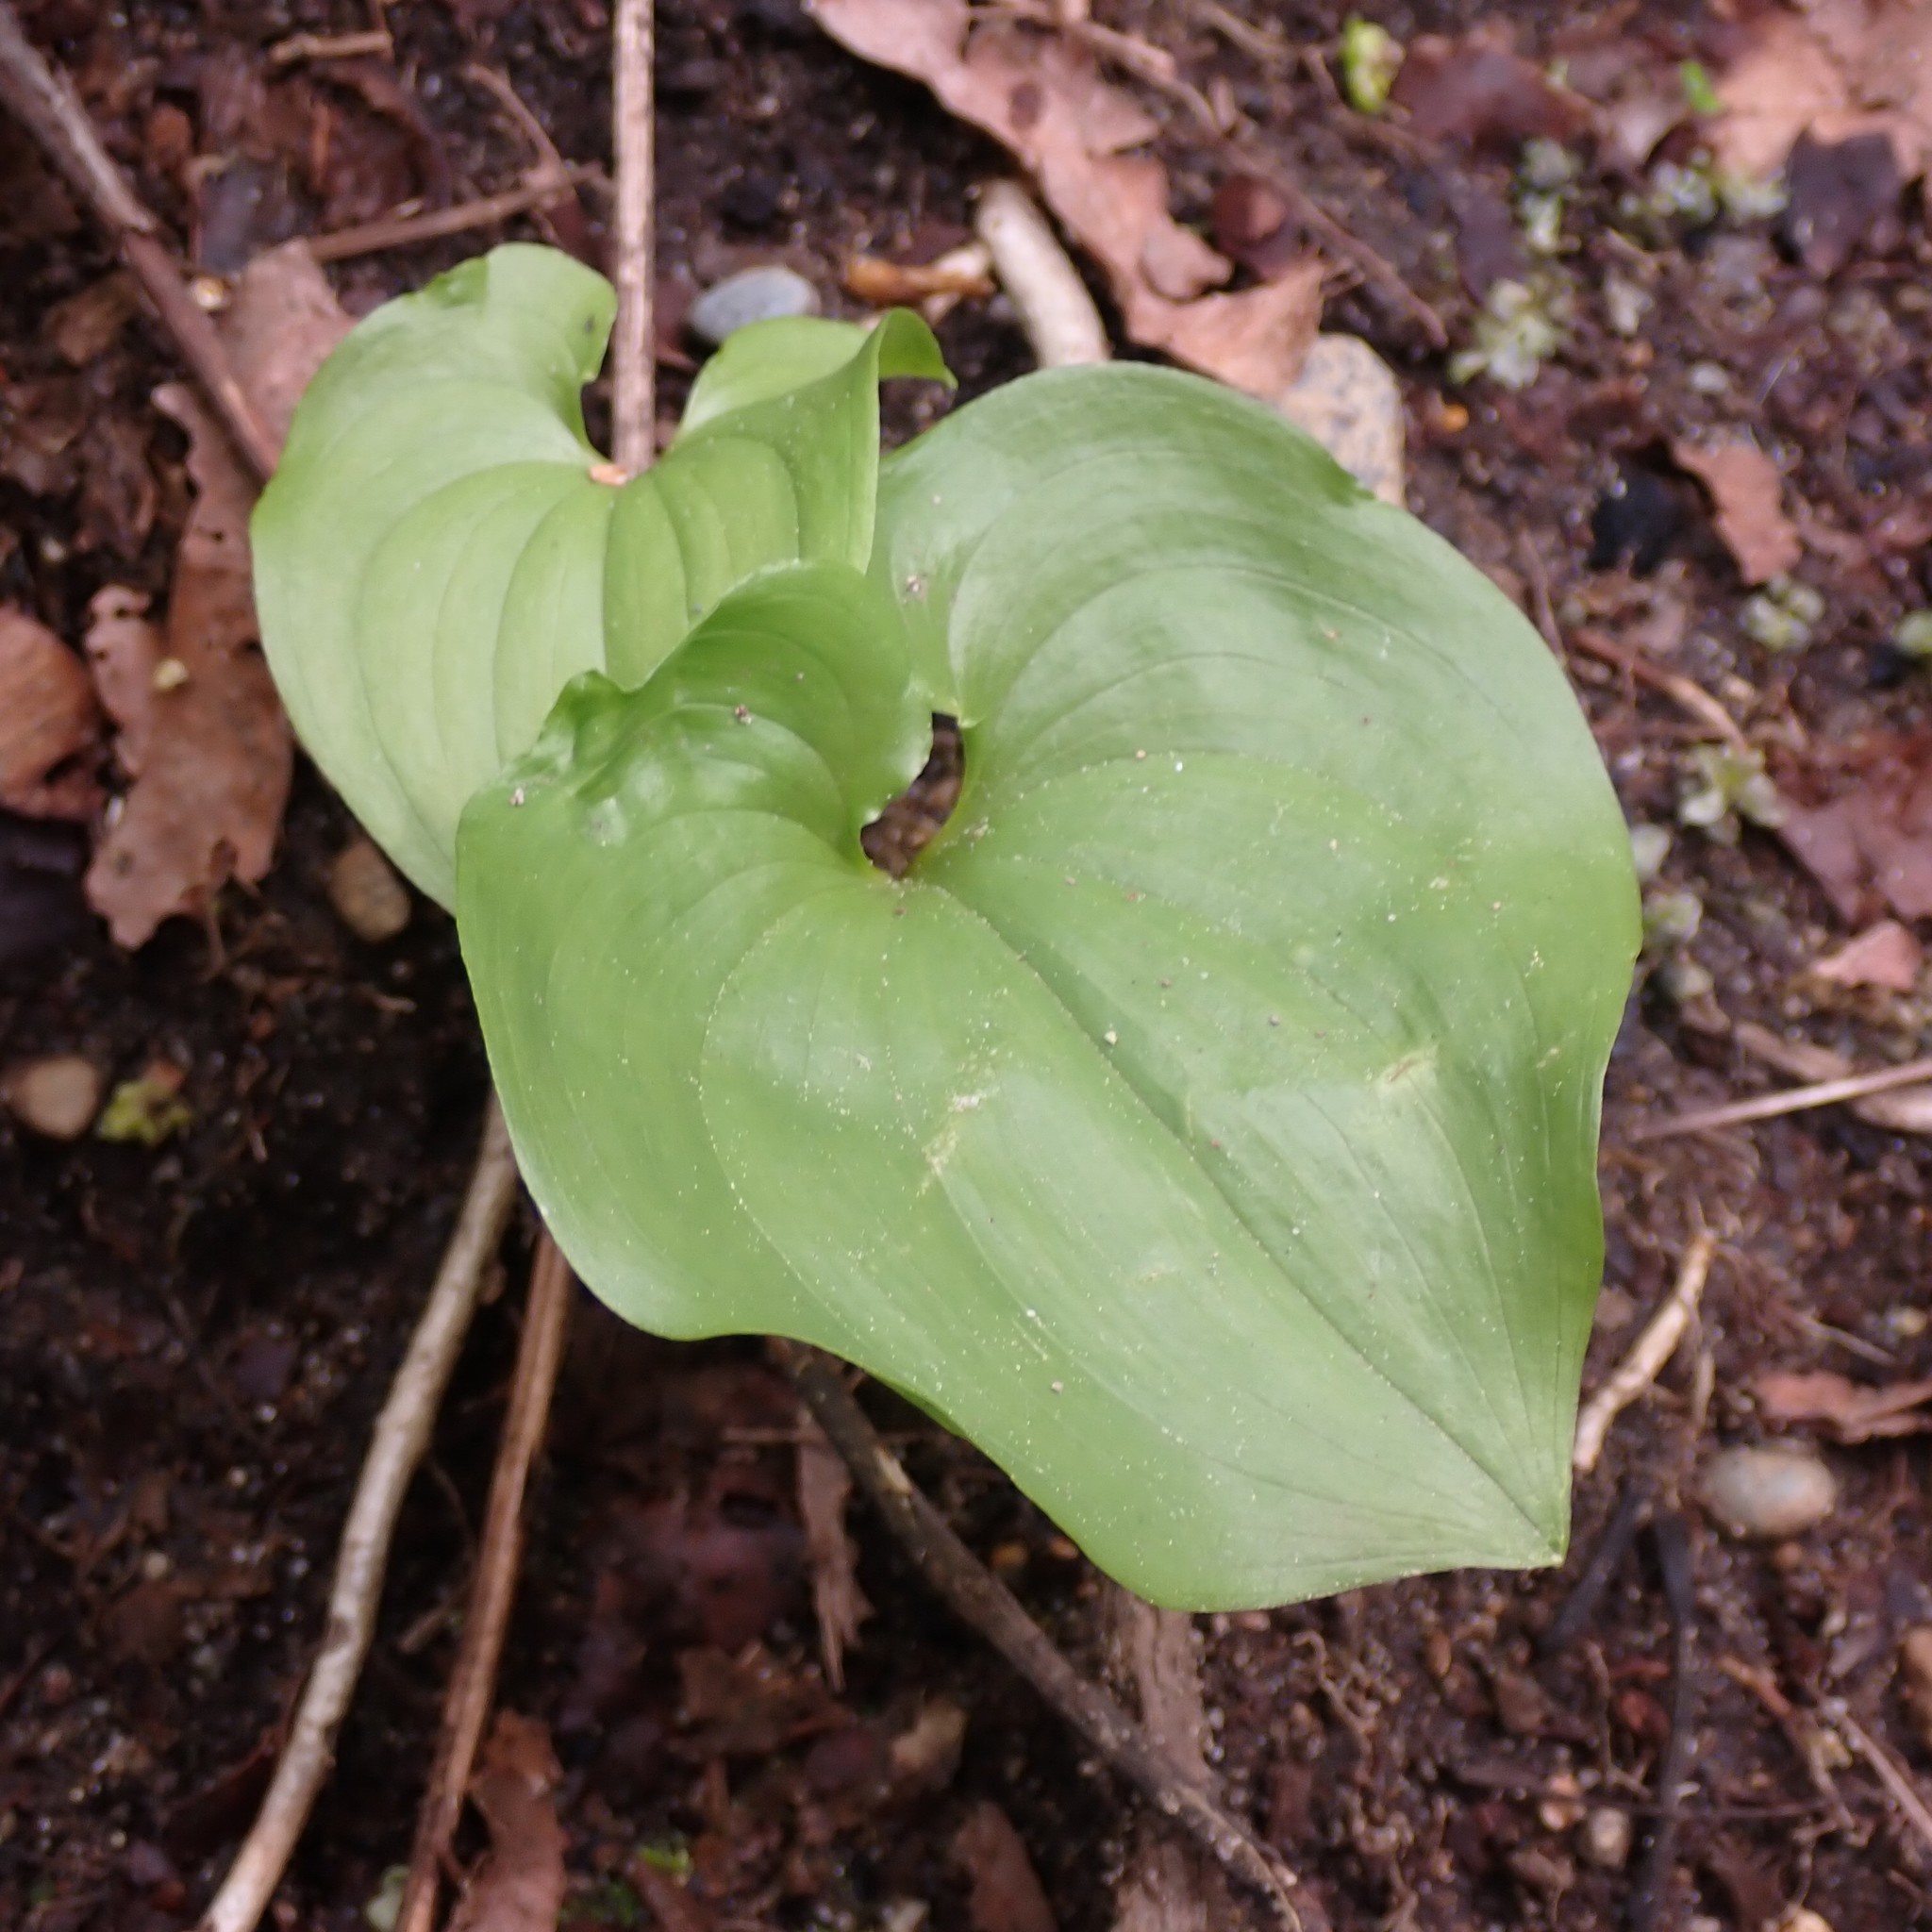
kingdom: Plantae
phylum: Tracheophyta
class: Liliopsida
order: Asparagales
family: Asparagaceae
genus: Maianthemum
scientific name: Maianthemum dilatatum
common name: False lily-of-the-valley
